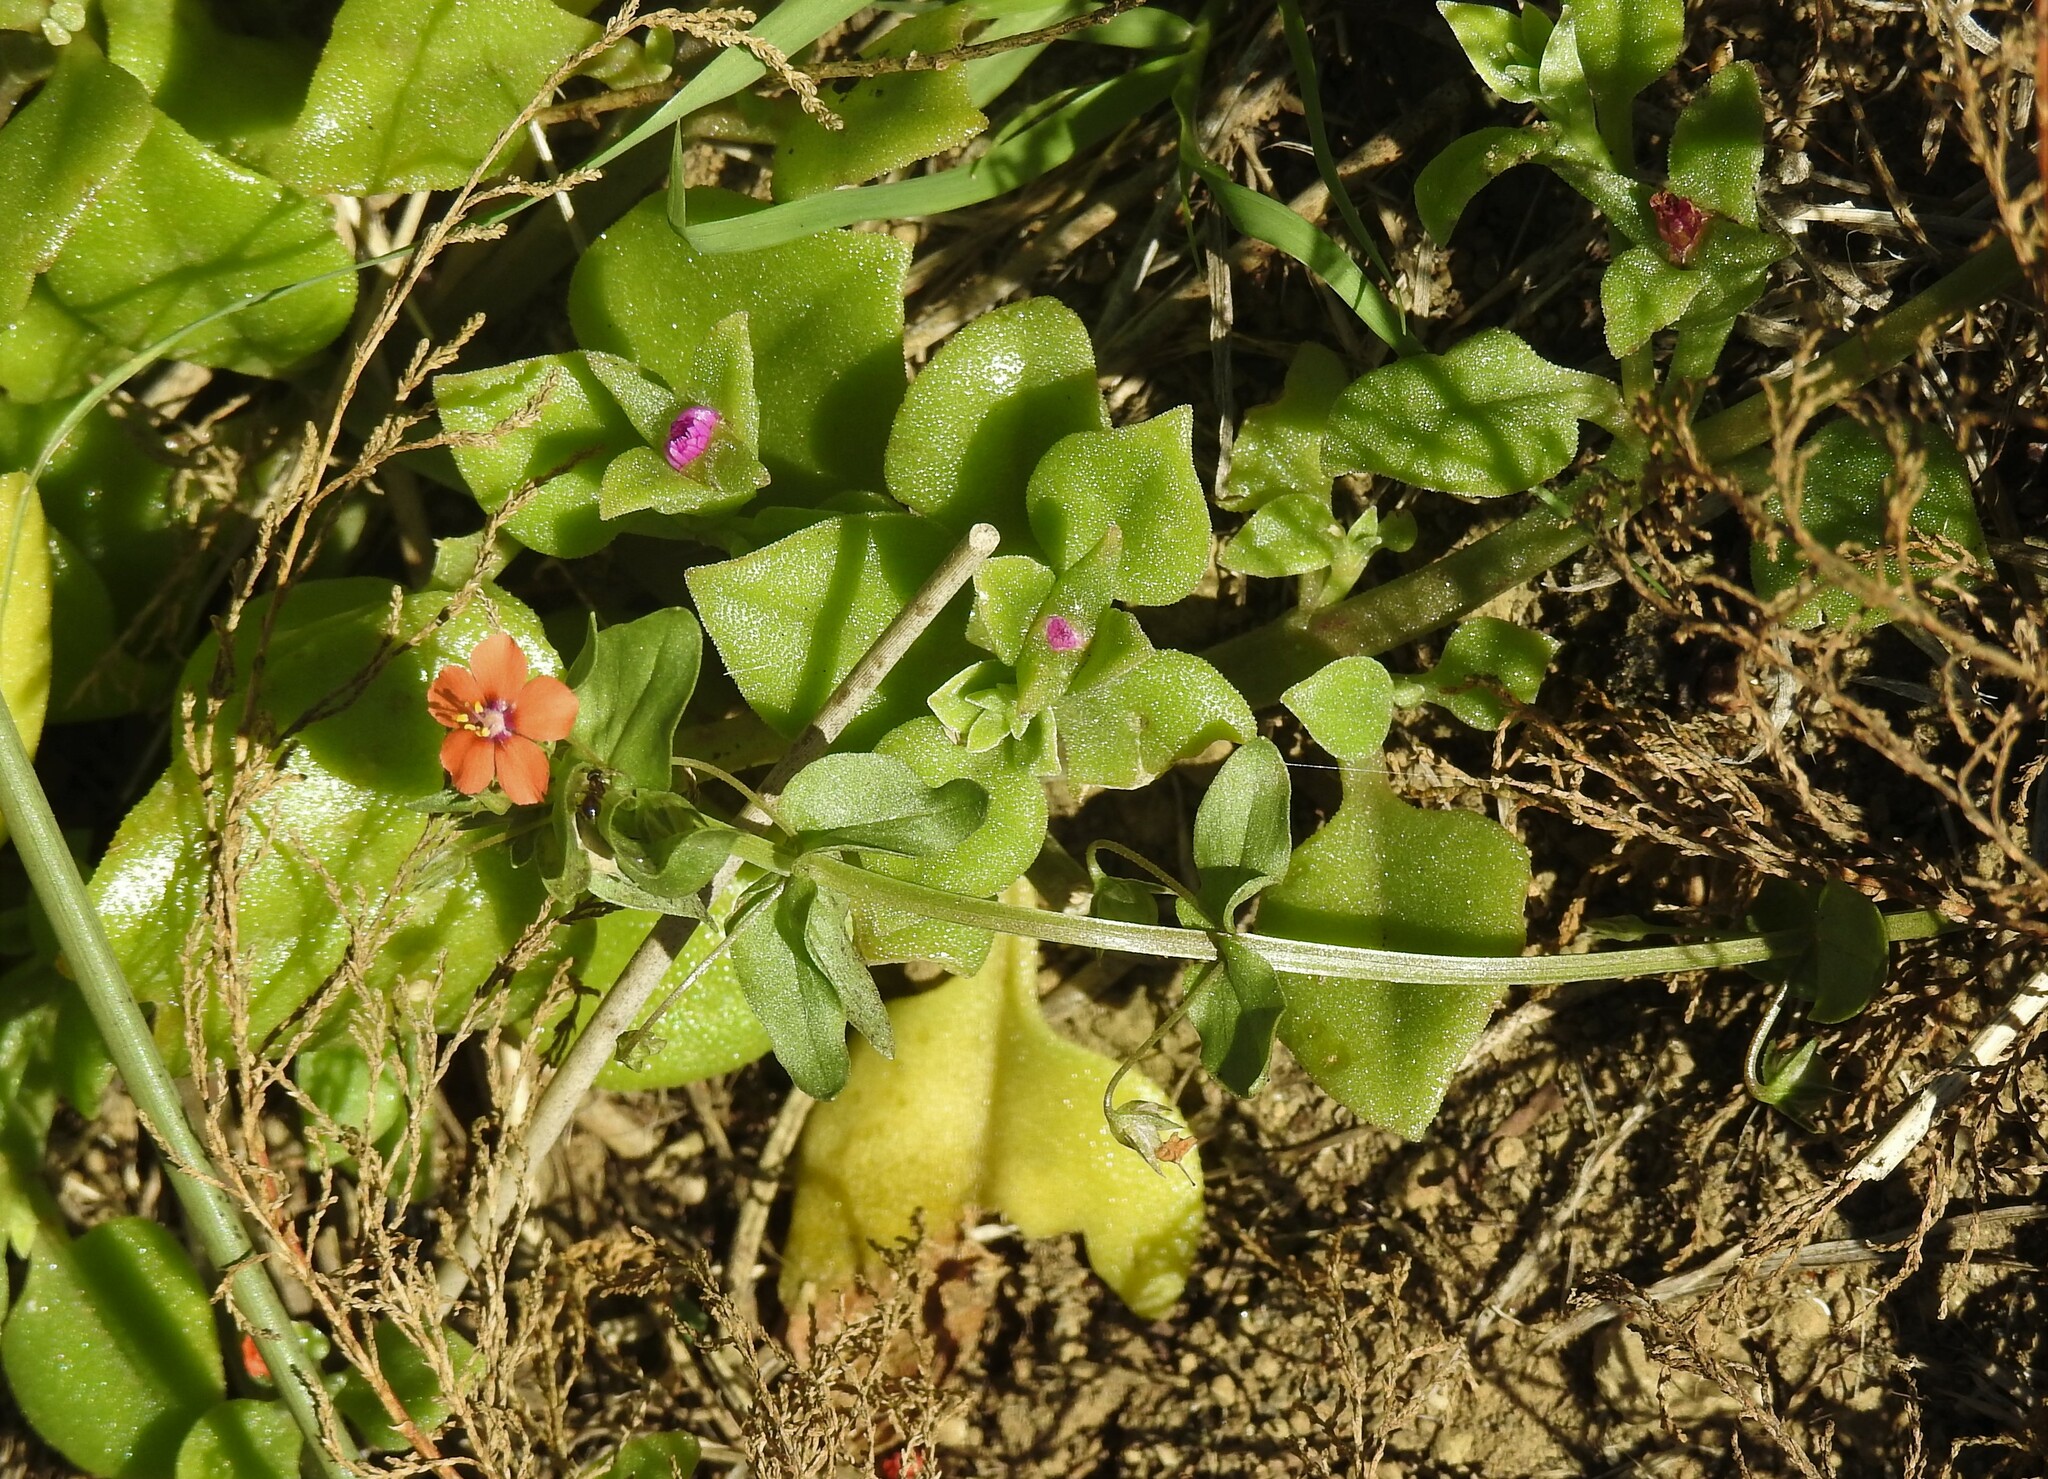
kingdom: Plantae
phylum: Tracheophyta
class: Magnoliopsida
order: Ericales
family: Primulaceae
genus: Lysimachia
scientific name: Lysimachia arvensis
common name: Scarlet pimpernel
